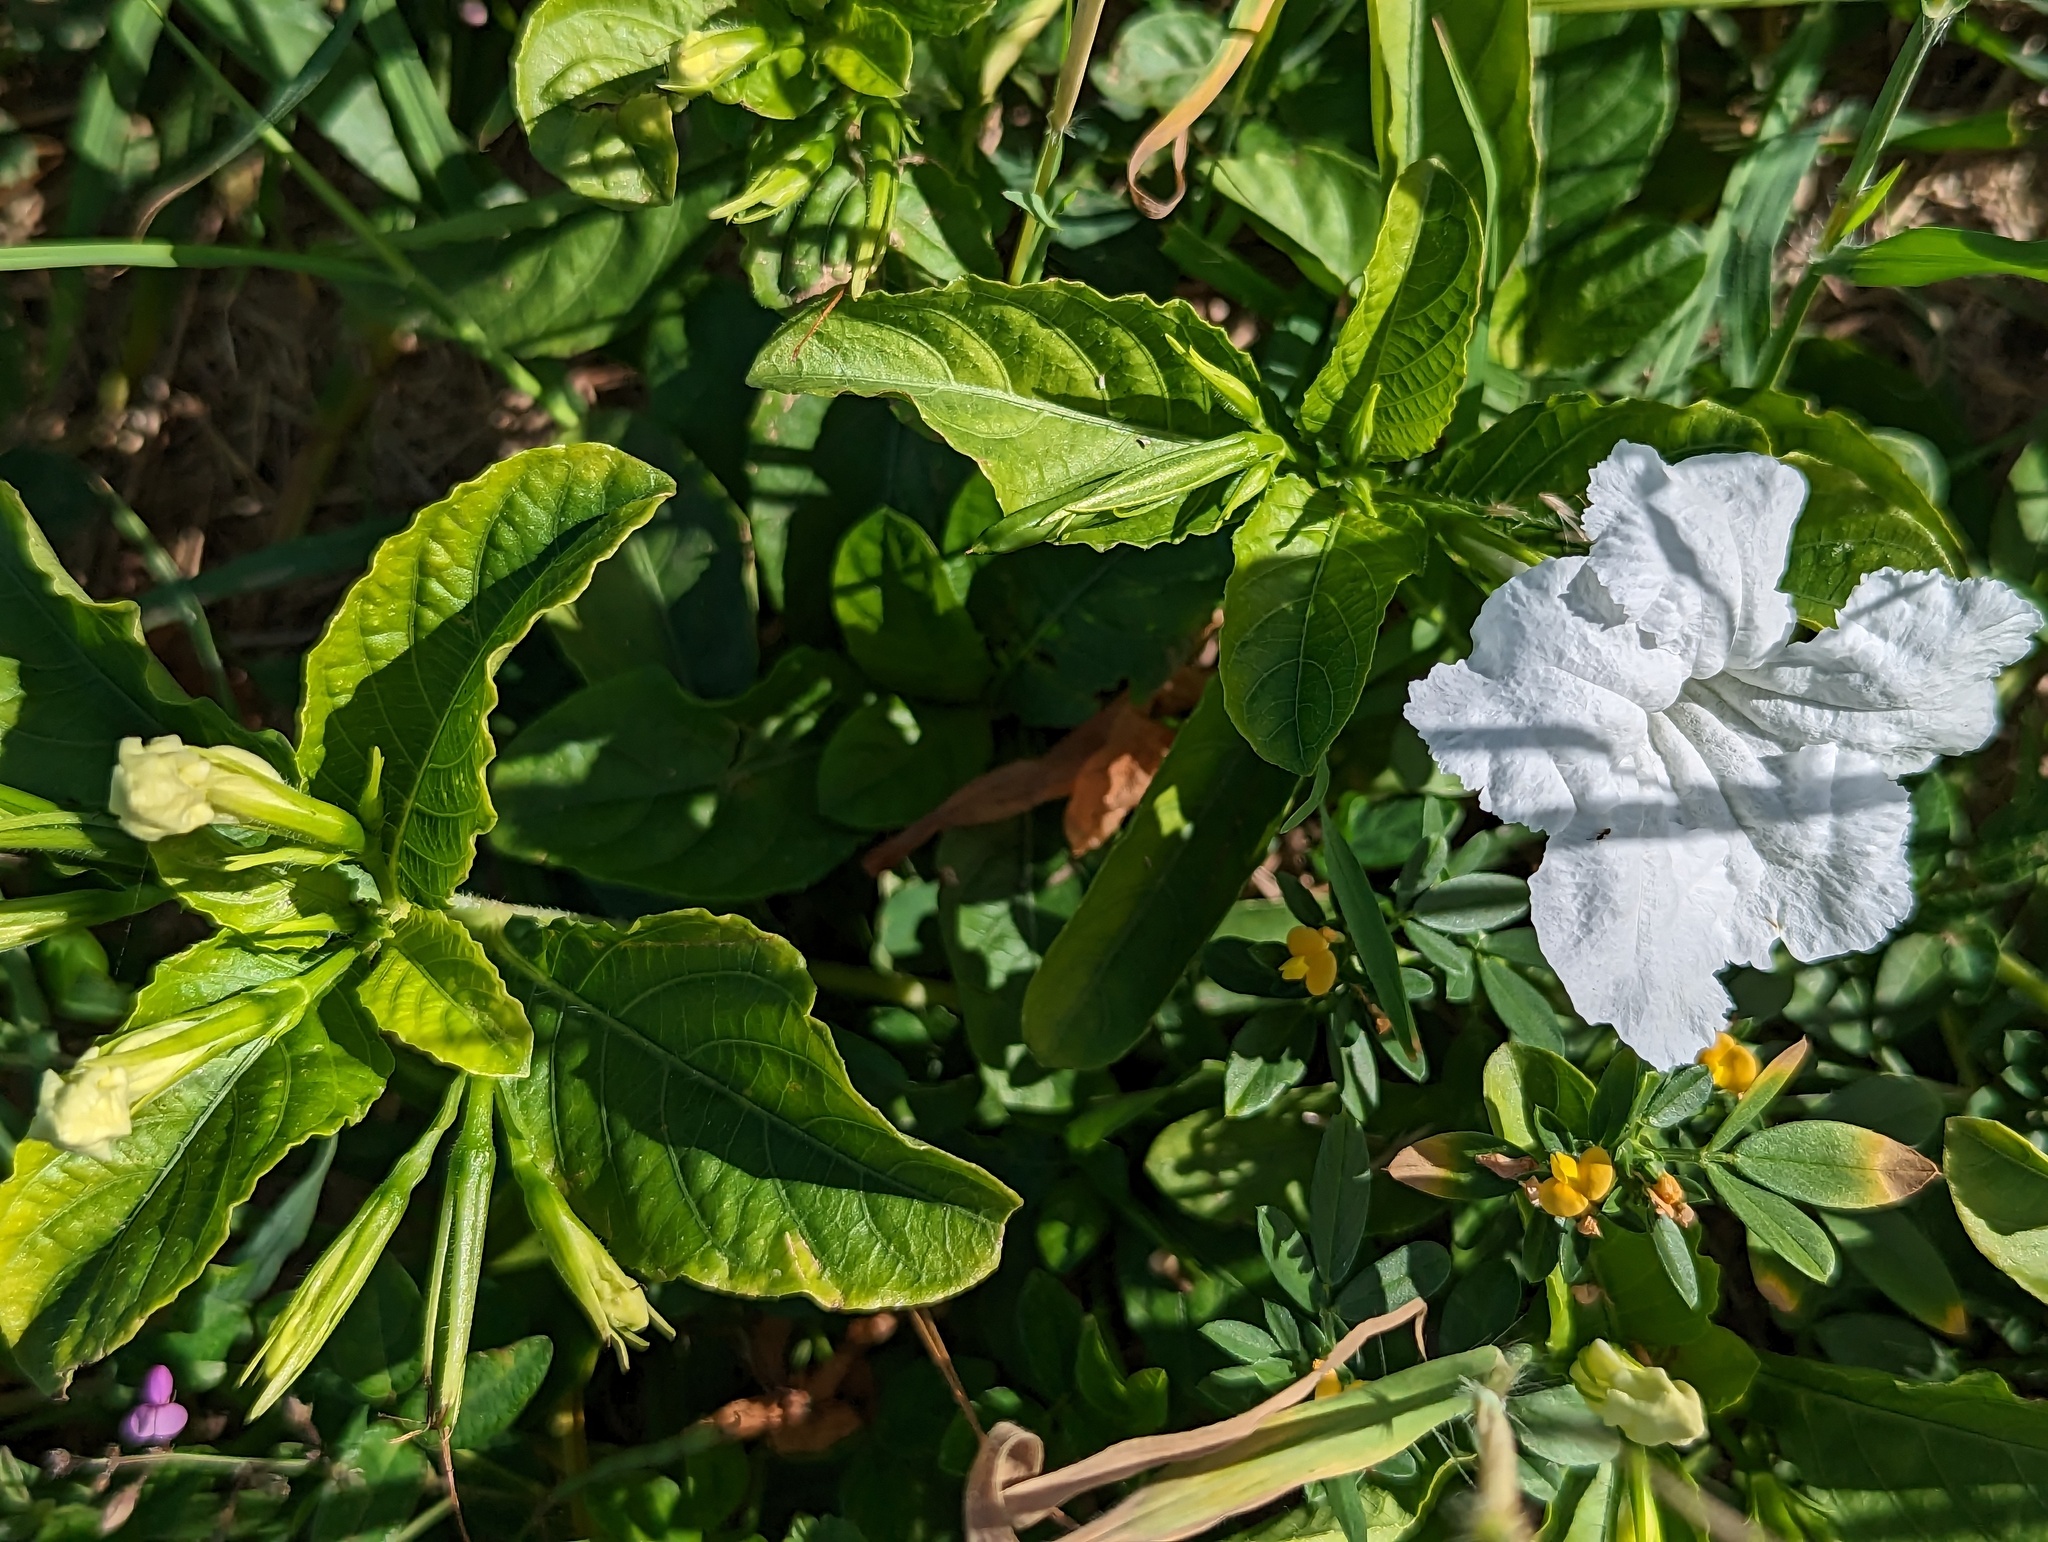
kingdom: Plantae
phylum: Tracheophyta
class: Magnoliopsida
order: Lamiales
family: Acanthaceae
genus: Ruellia
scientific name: Ruellia tuberosa
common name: Devil's bit
